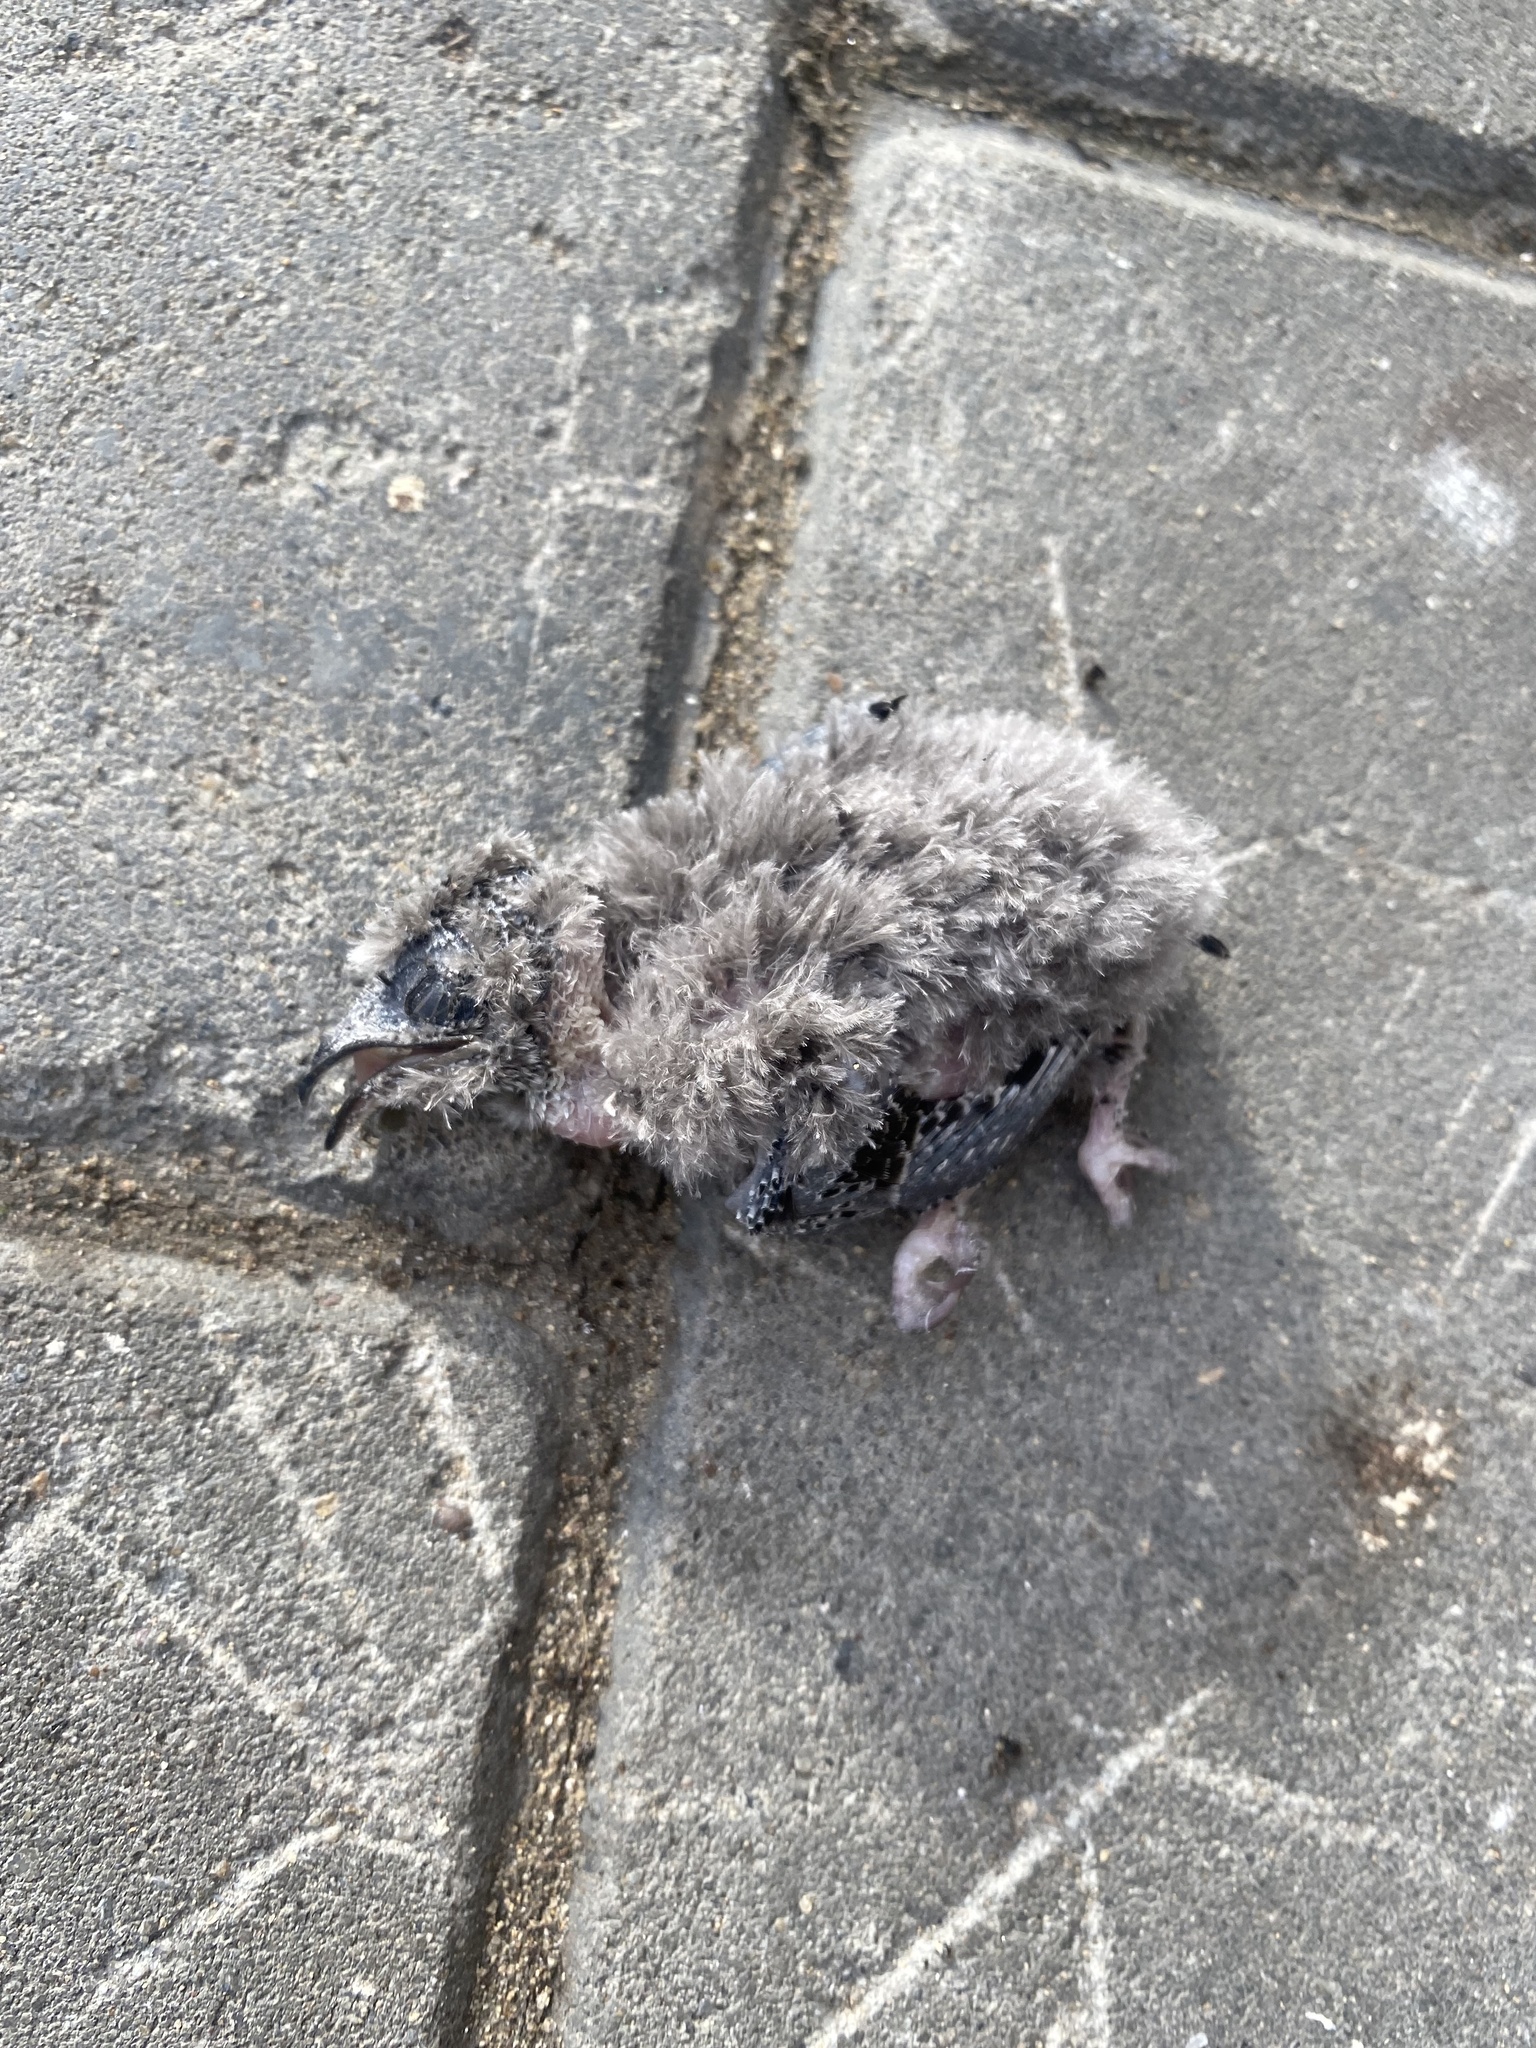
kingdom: Animalia
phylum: Chordata
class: Aves
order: Apodiformes
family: Apodidae
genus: Apus
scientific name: Apus pacificus
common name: Pacific swift
